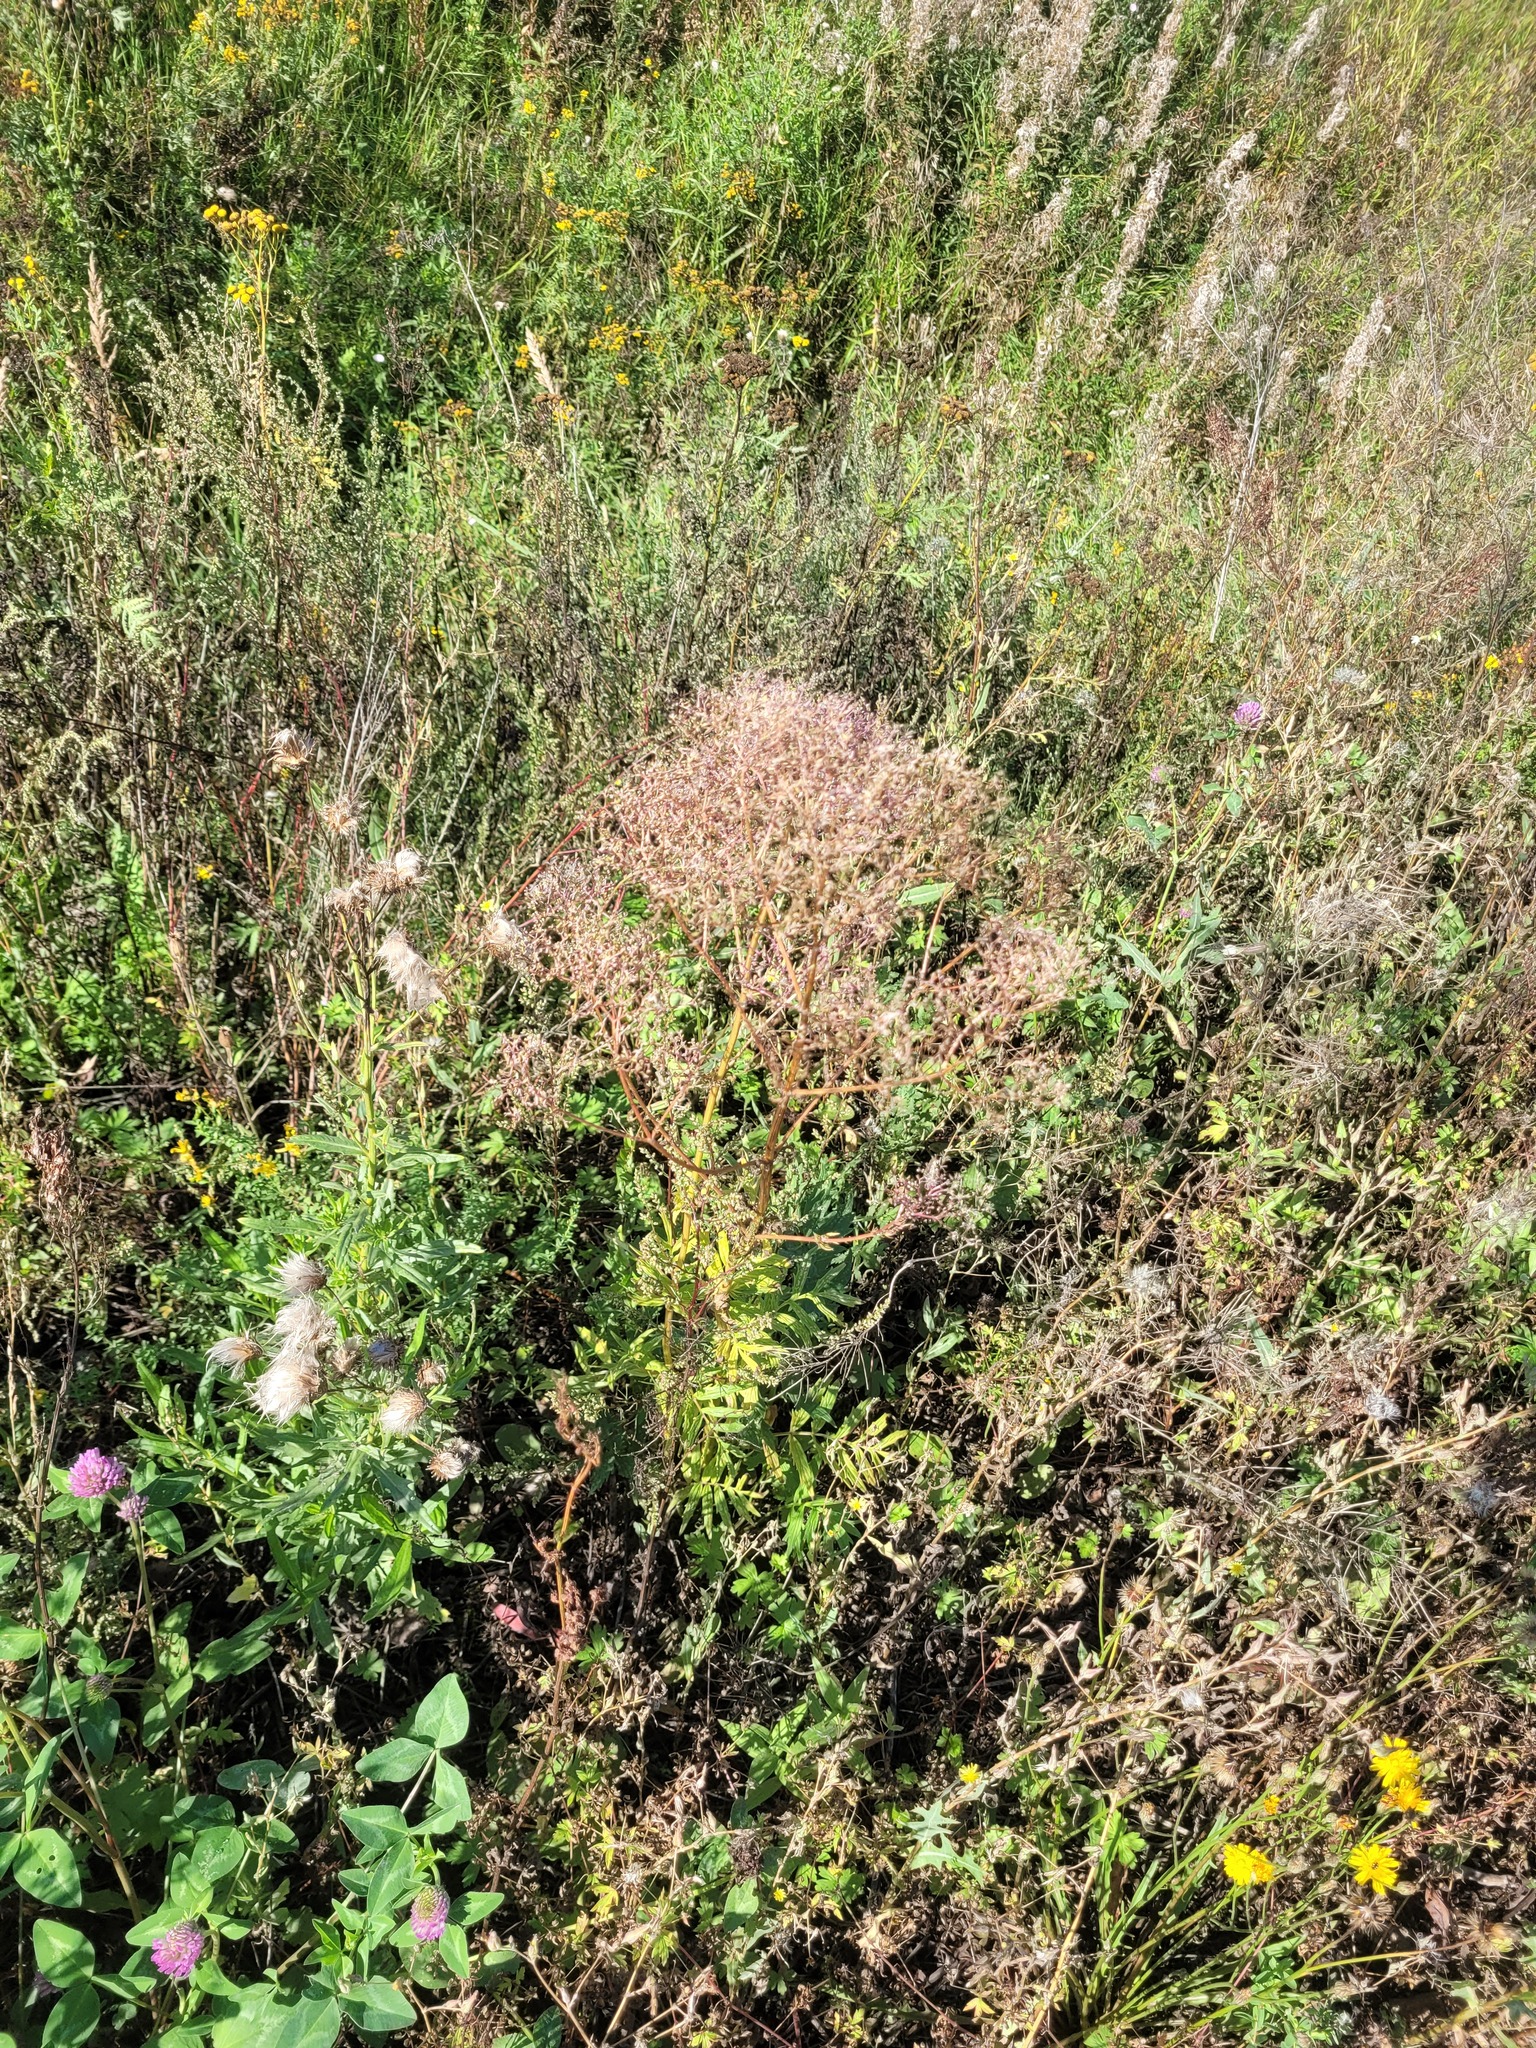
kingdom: Plantae
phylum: Tracheophyta
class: Magnoliopsida
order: Dipsacales
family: Caprifoliaceae
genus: Valeriana
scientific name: Valeriana officinalis
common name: Common valerian
